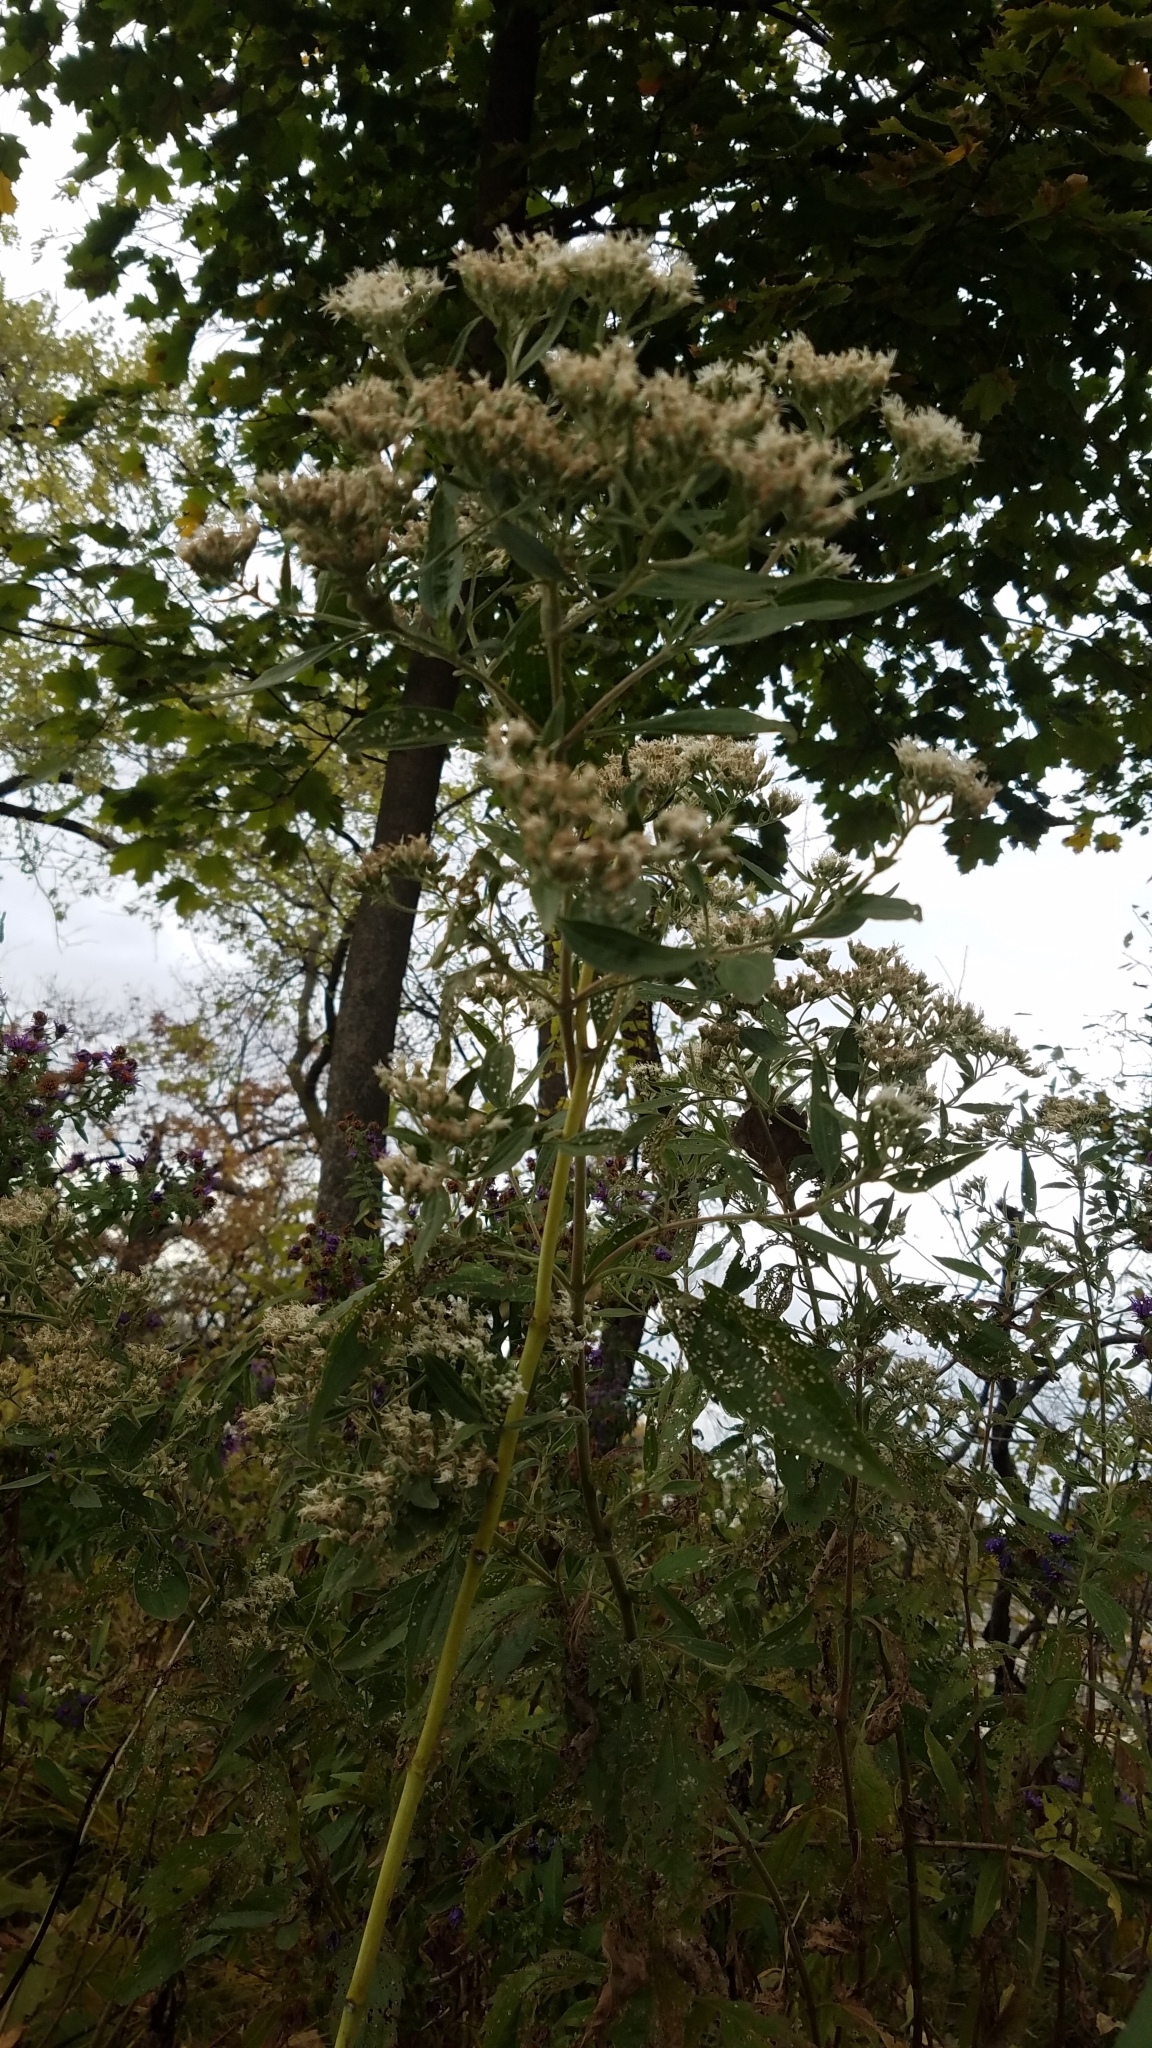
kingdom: Plantae
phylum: Tracheophyta
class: Magnoliopsida
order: Asterales
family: Asteraceae
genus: Eupatorium
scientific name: Eupatorium serotinum
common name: Late boneset
